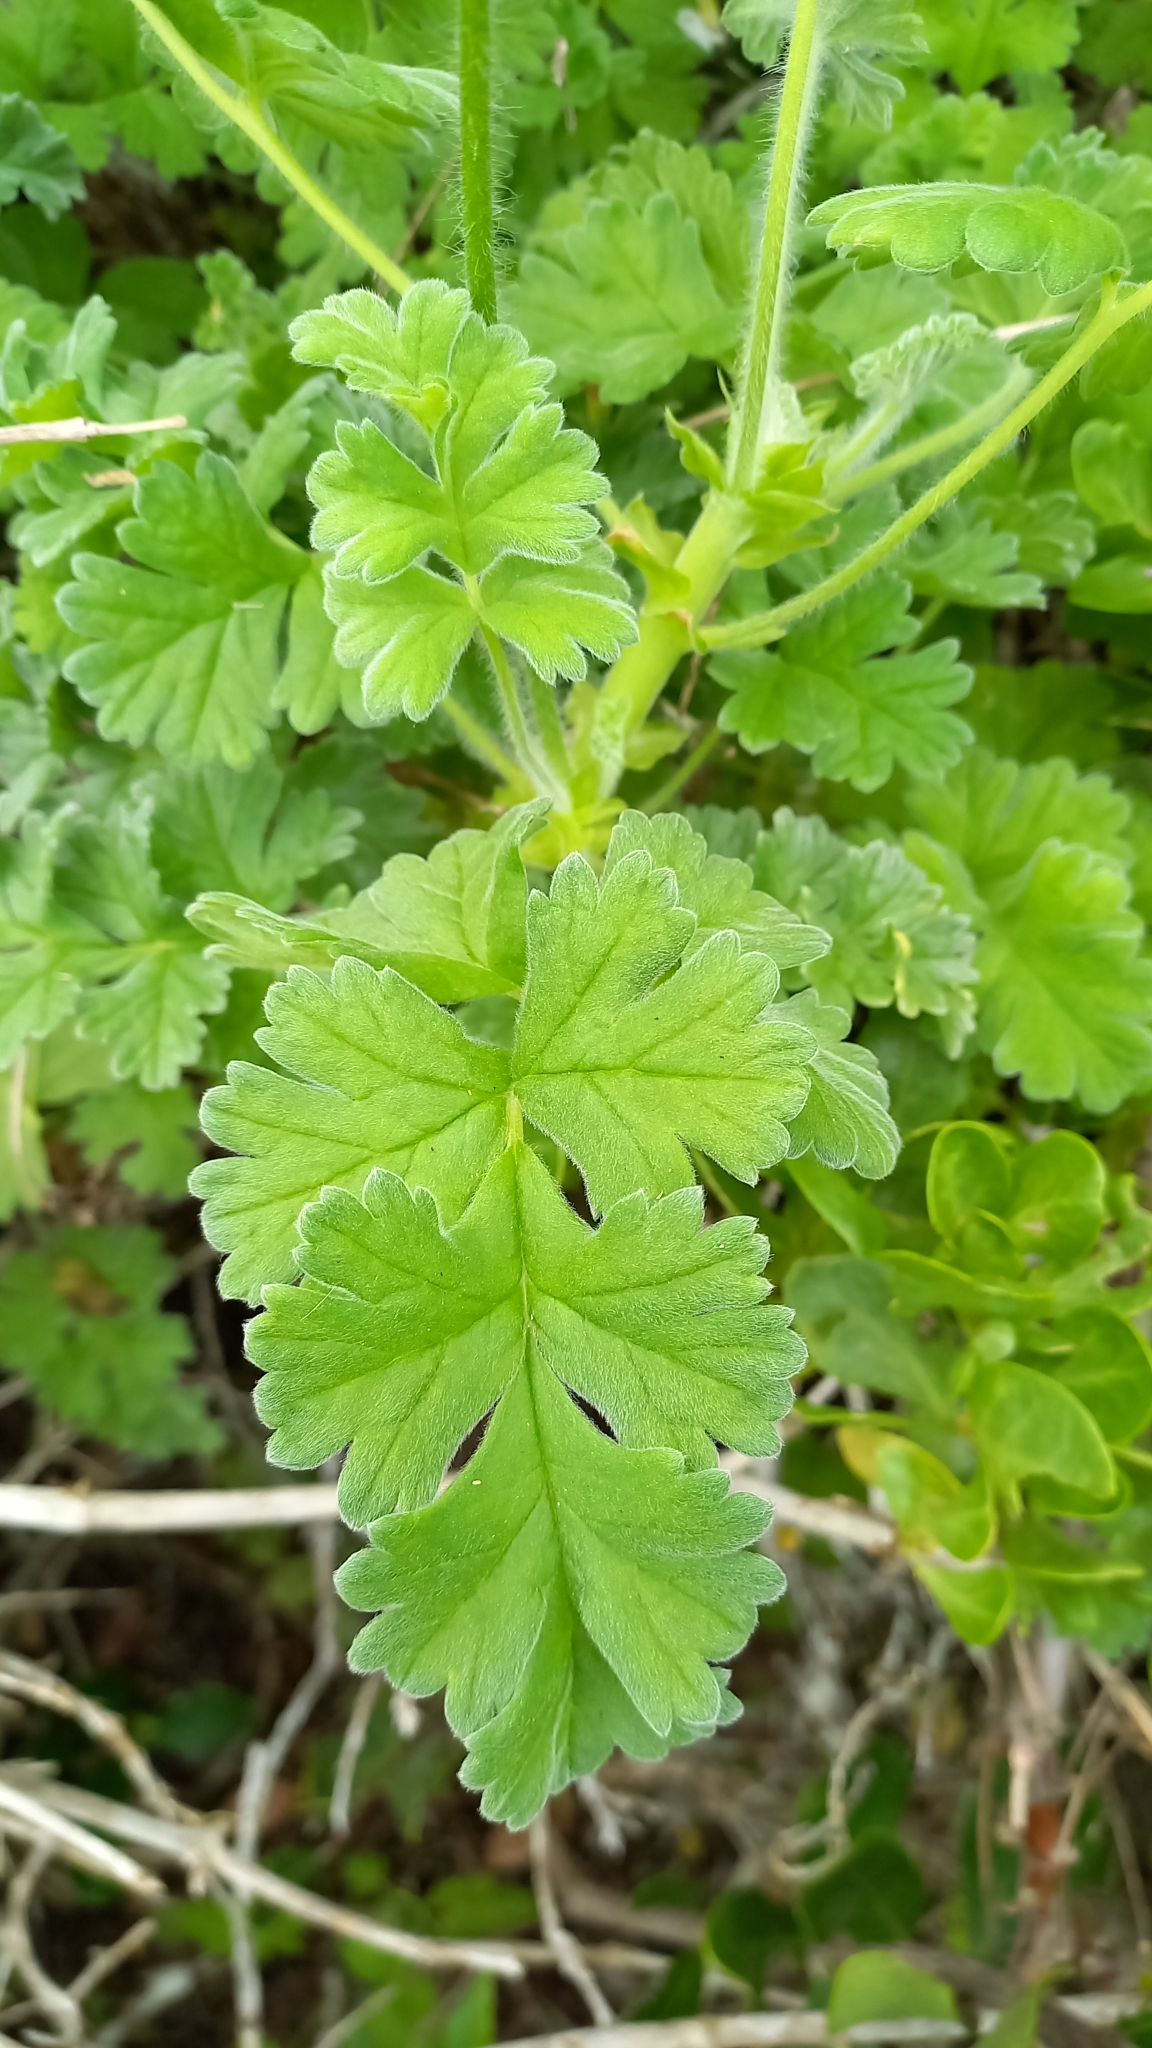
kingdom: Plantae
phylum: Tracheophyta
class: Magnoliopsida
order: Geraniales
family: Geraniaceae
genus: Pelargonium
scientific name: Pelargonium fulgidum
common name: Celandine-leaf pelargonium
